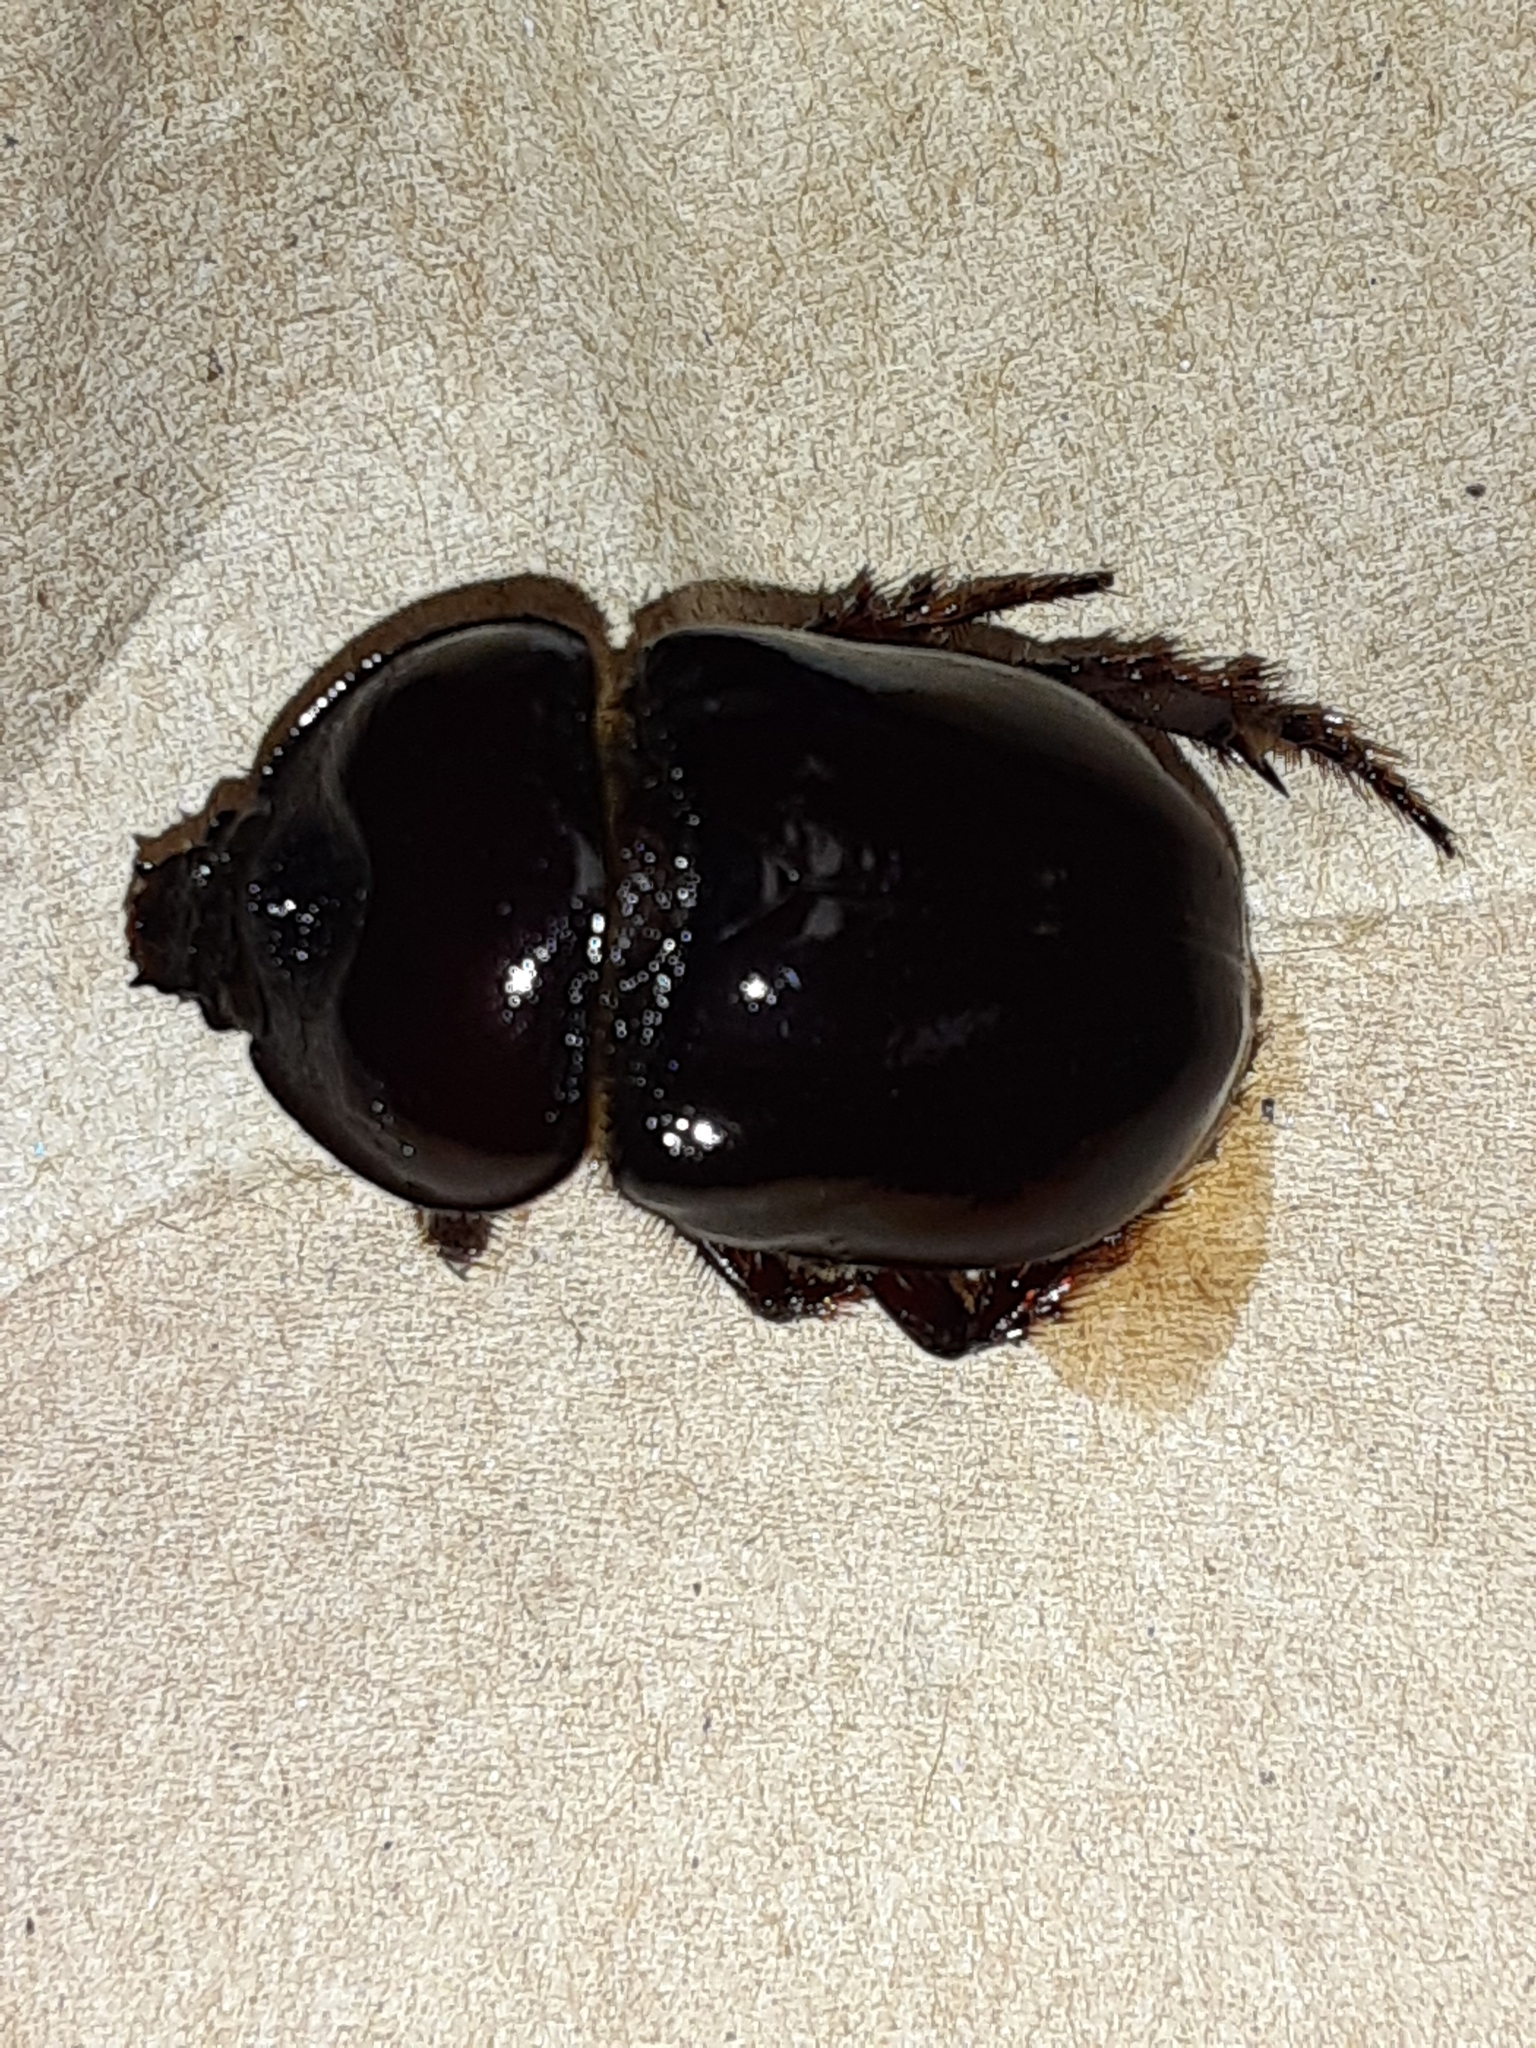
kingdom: Animalia
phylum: Arthropoda
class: Insecta
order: Coleoptera
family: Scarabaeidae
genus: Strategus
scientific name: Strategus antaeus
